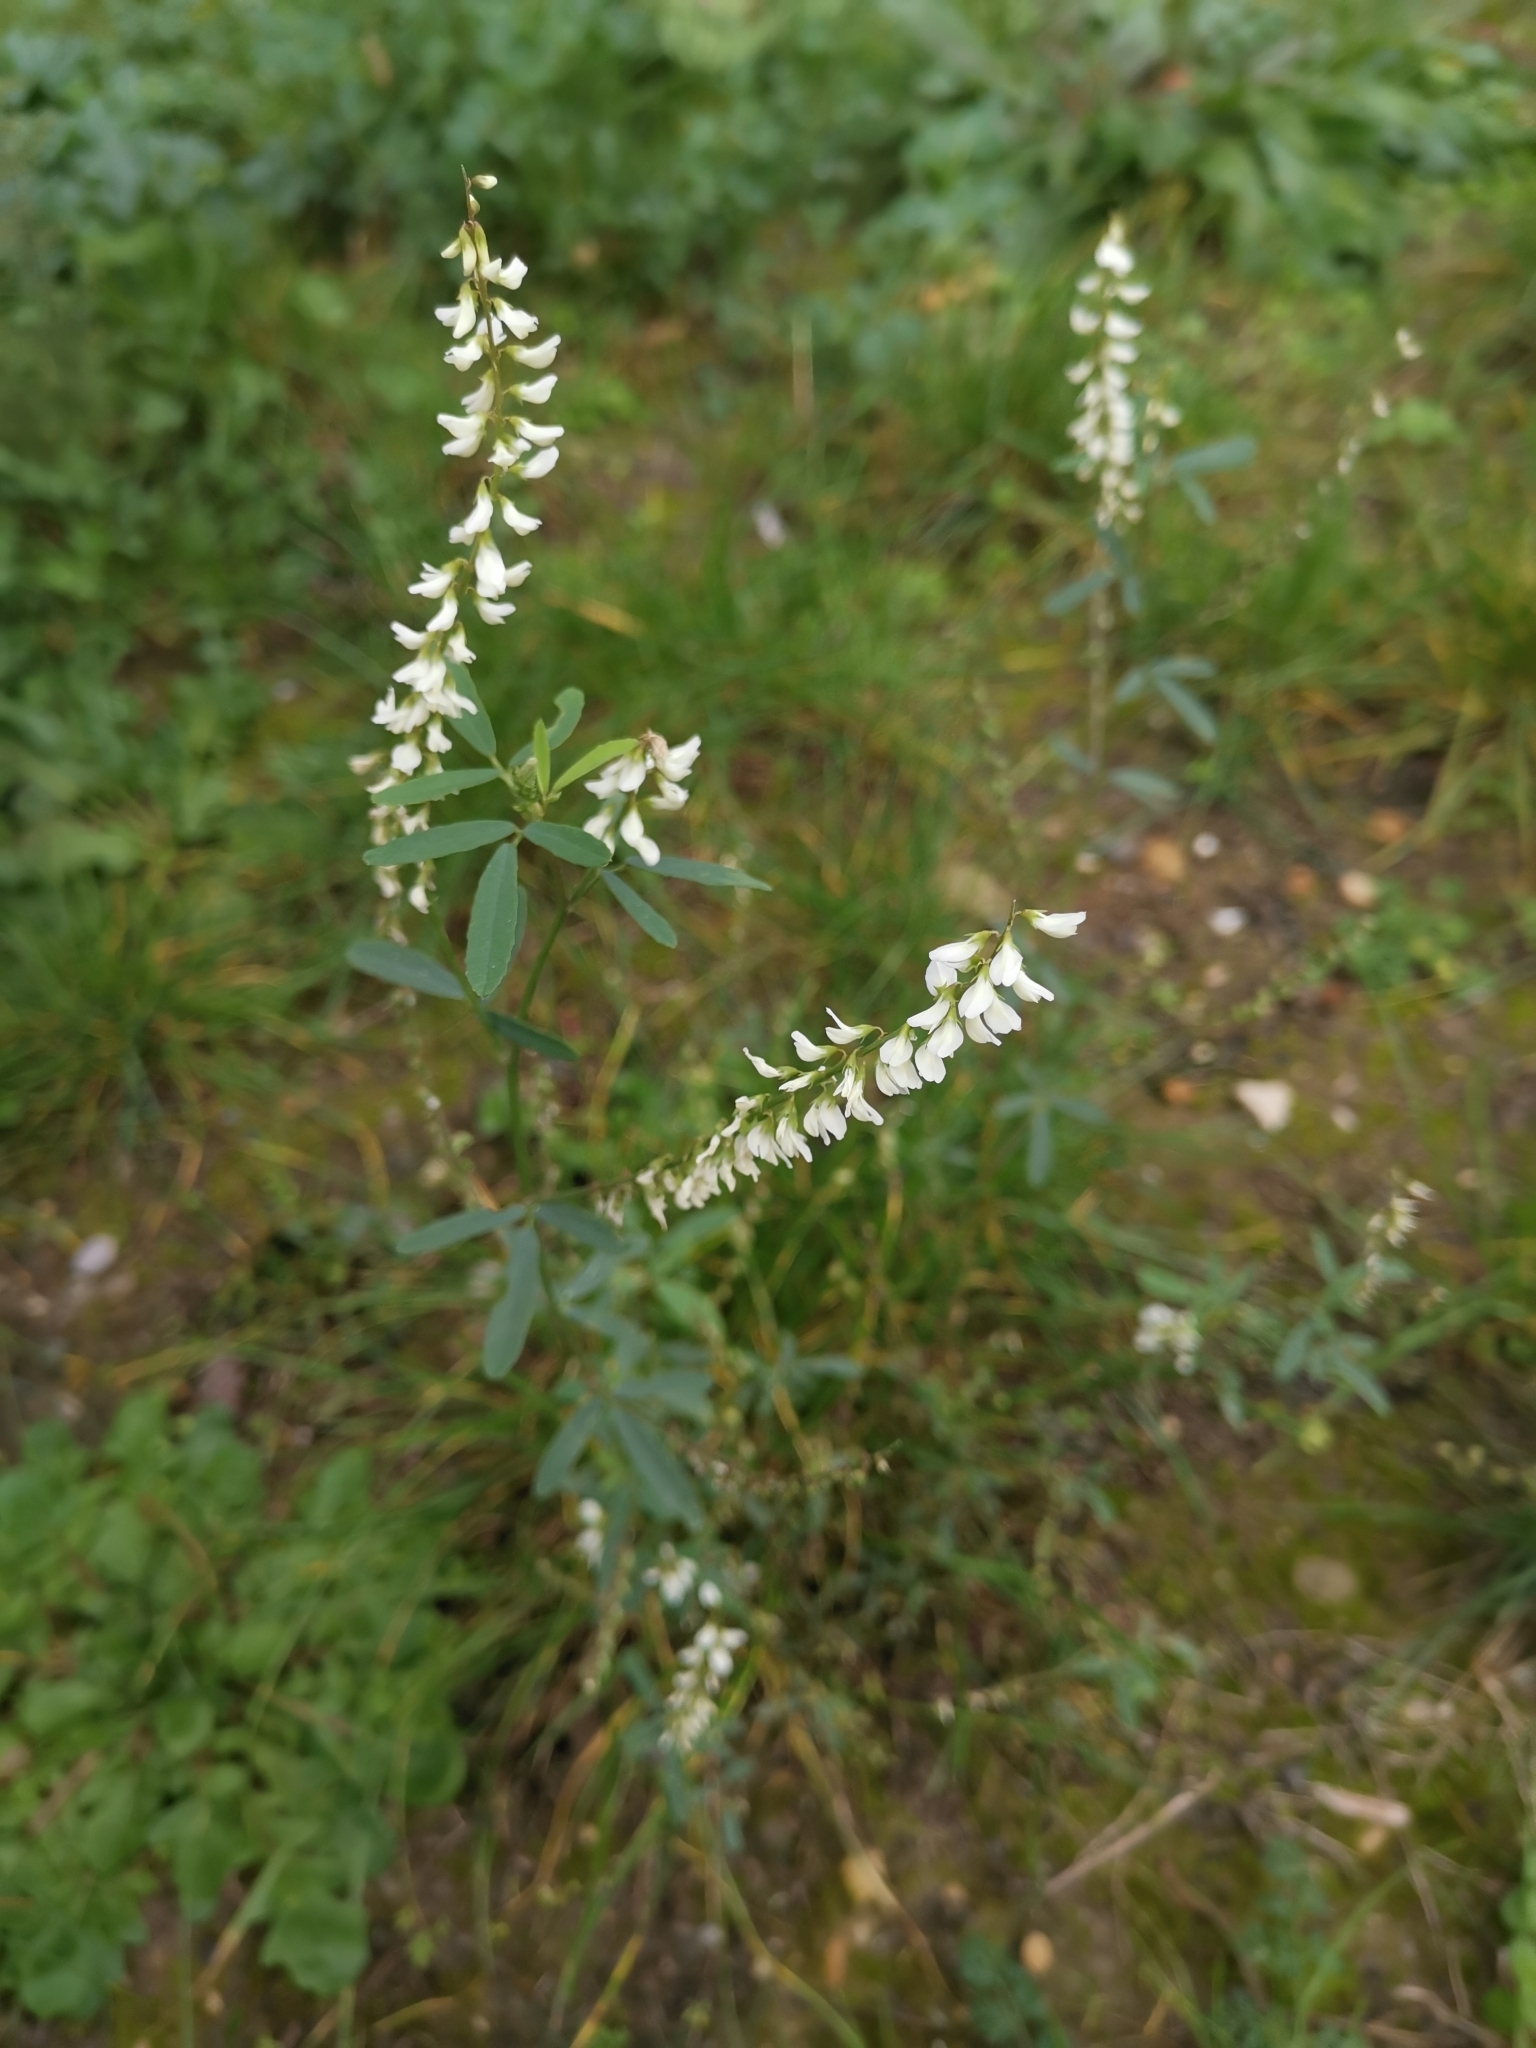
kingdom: Plantae
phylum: Tracheophyta
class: Magnoliopsida
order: Fabales
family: Fabaceae
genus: Melilotus
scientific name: Melilotus albus
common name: White melilot
